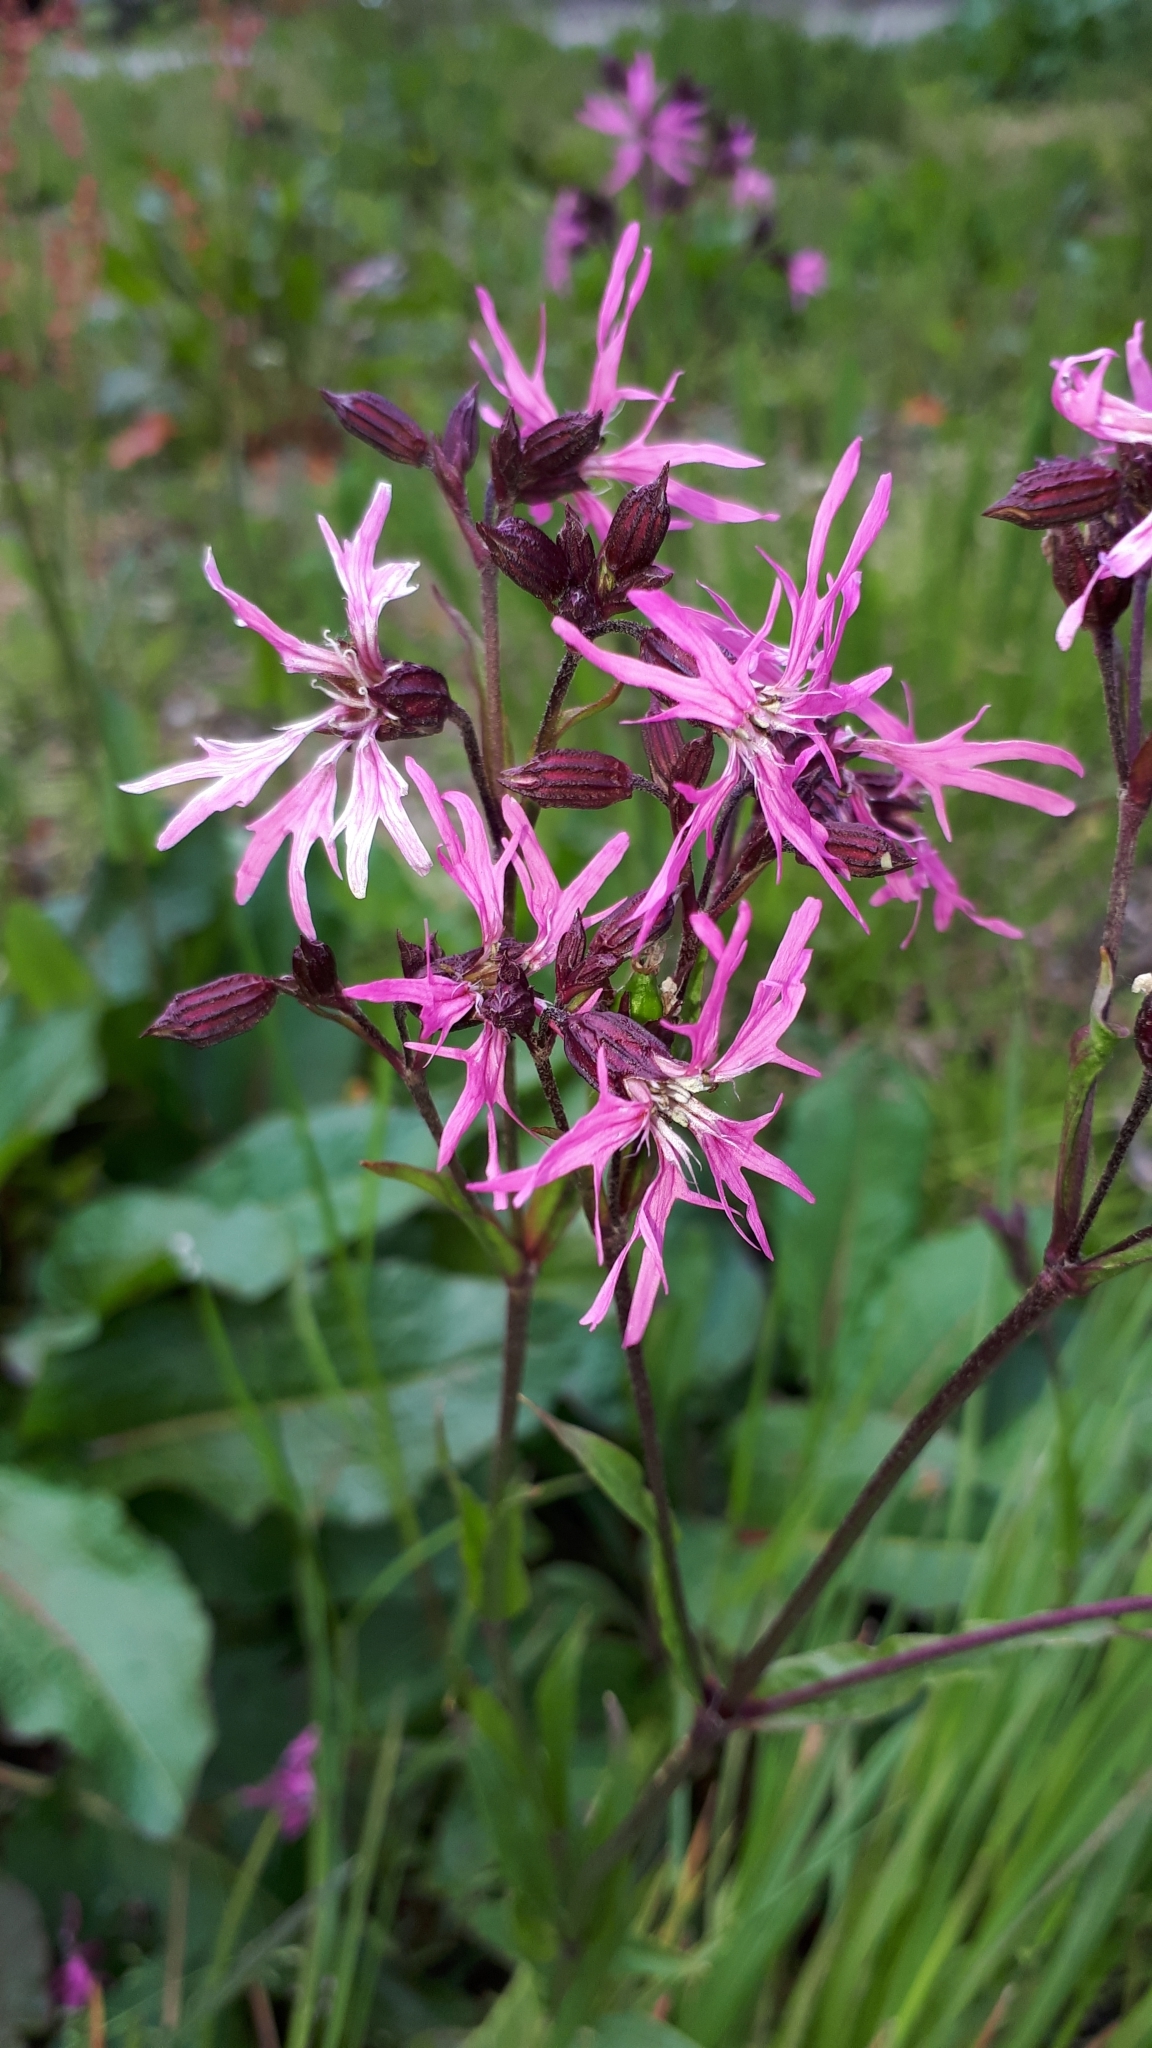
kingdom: Plantae
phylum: Tracheophyta
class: Magnoliopsida
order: Caryophyllales
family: Caryophyllaceae
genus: Silene
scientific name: Silene flos-cuculi
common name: Ragged-robin
